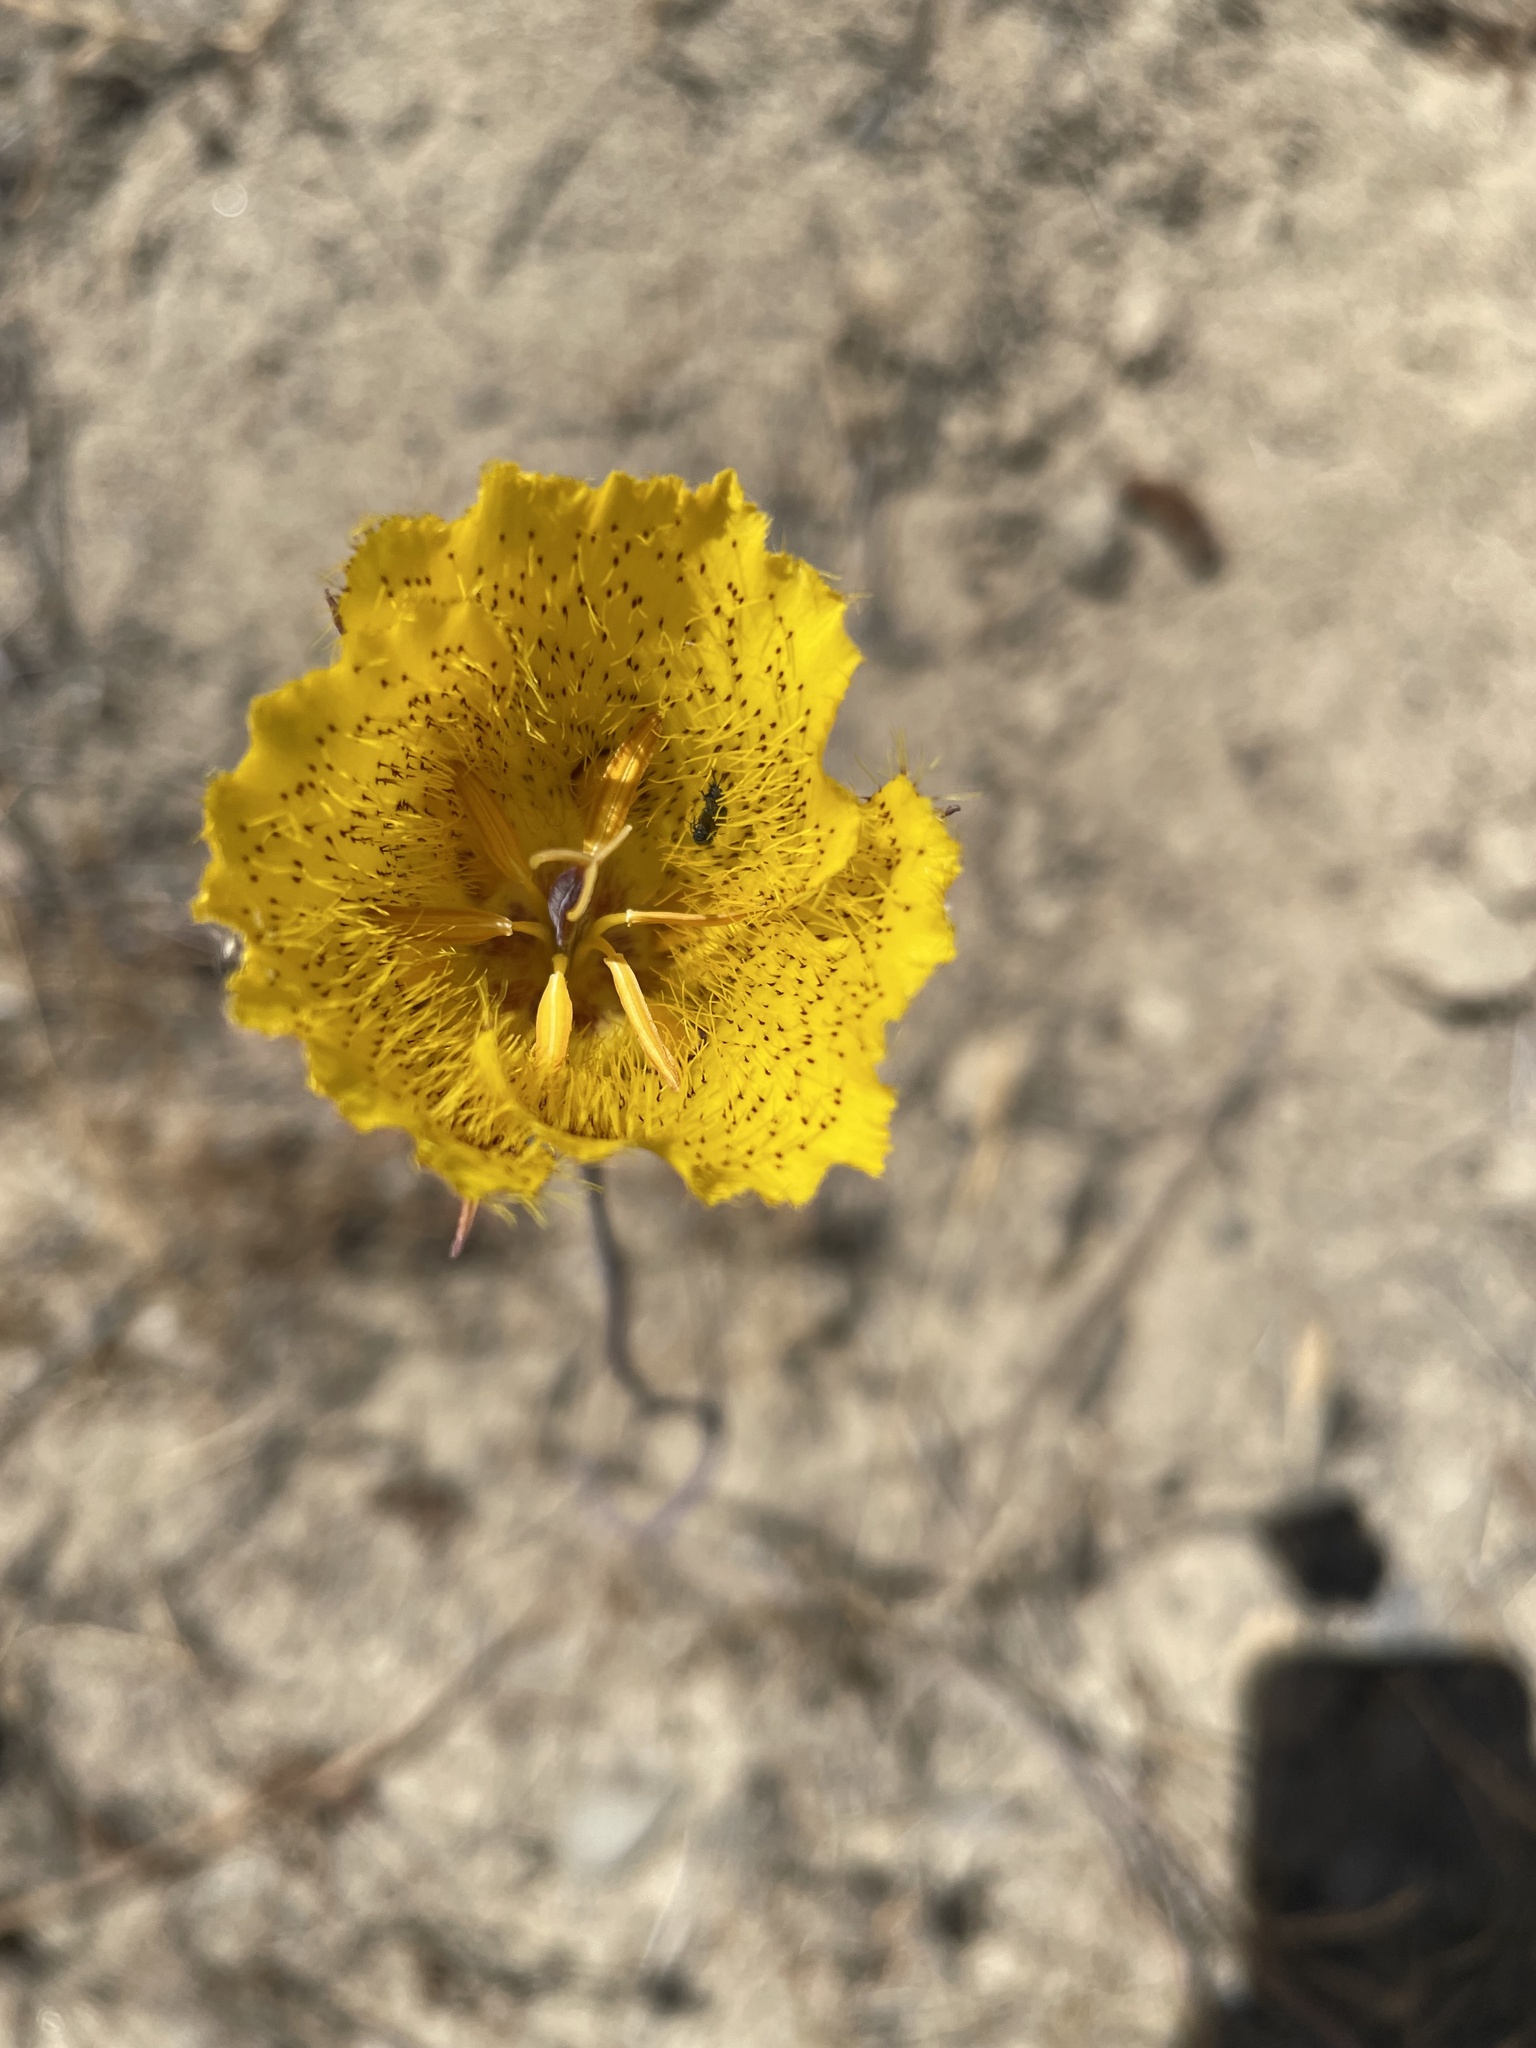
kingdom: Plantae
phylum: Tracheophyta
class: Liliopsida
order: Liliales
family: Liliaceae
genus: Calochortus
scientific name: Calochortus weedii
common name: Weed's mariposa-lily
